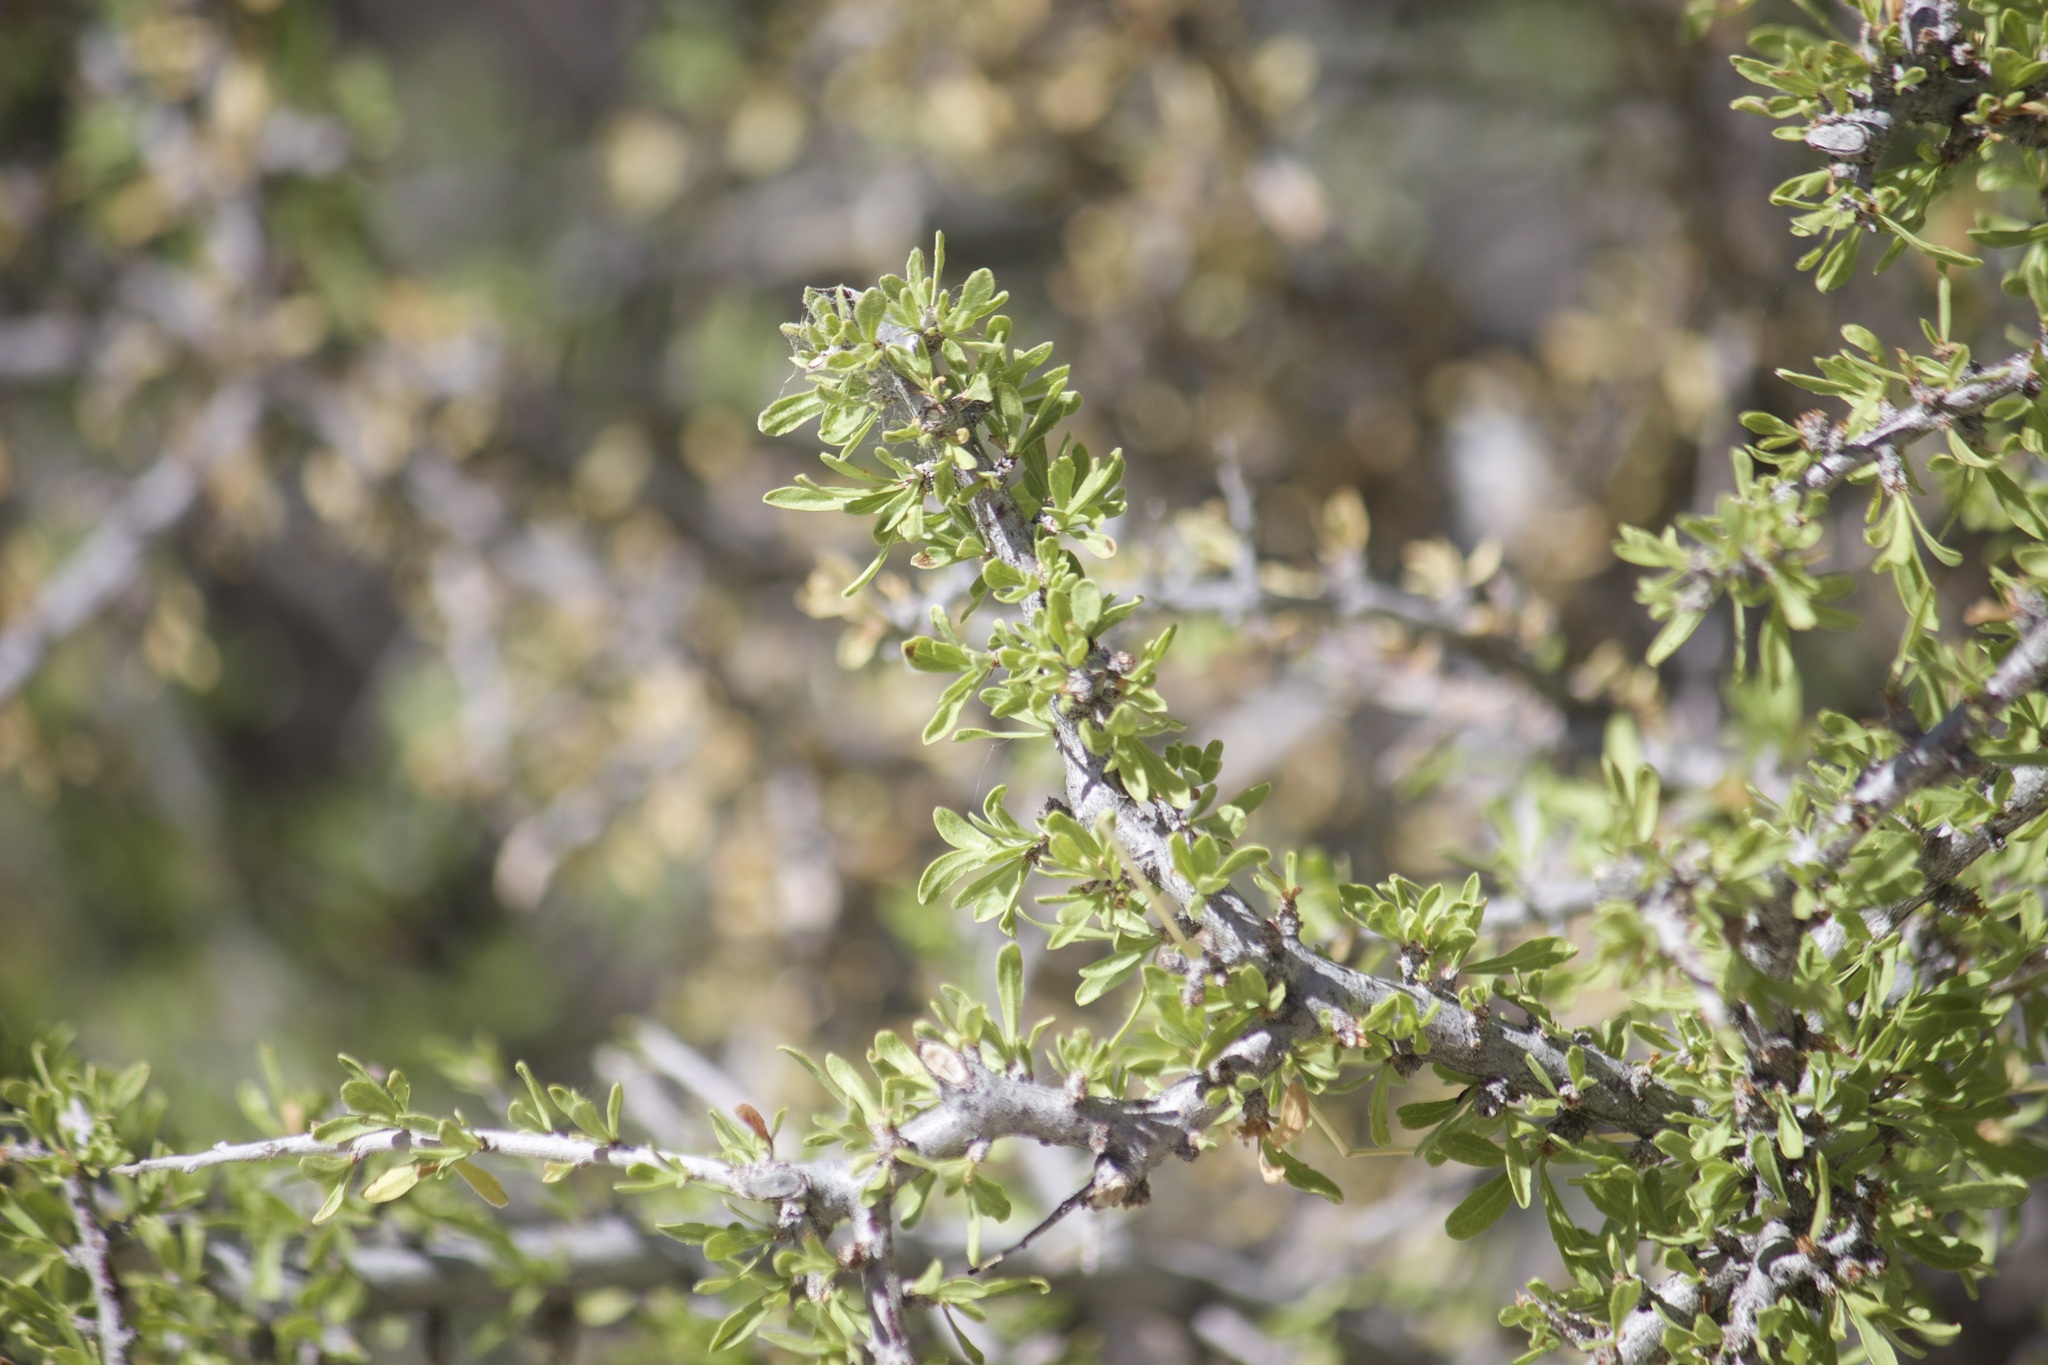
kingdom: Plantae
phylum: Tracheophyta
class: Magnoliopsida
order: Rosales
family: Rosaceae
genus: Prunus
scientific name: Prunus fasciculata
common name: Desert almond
